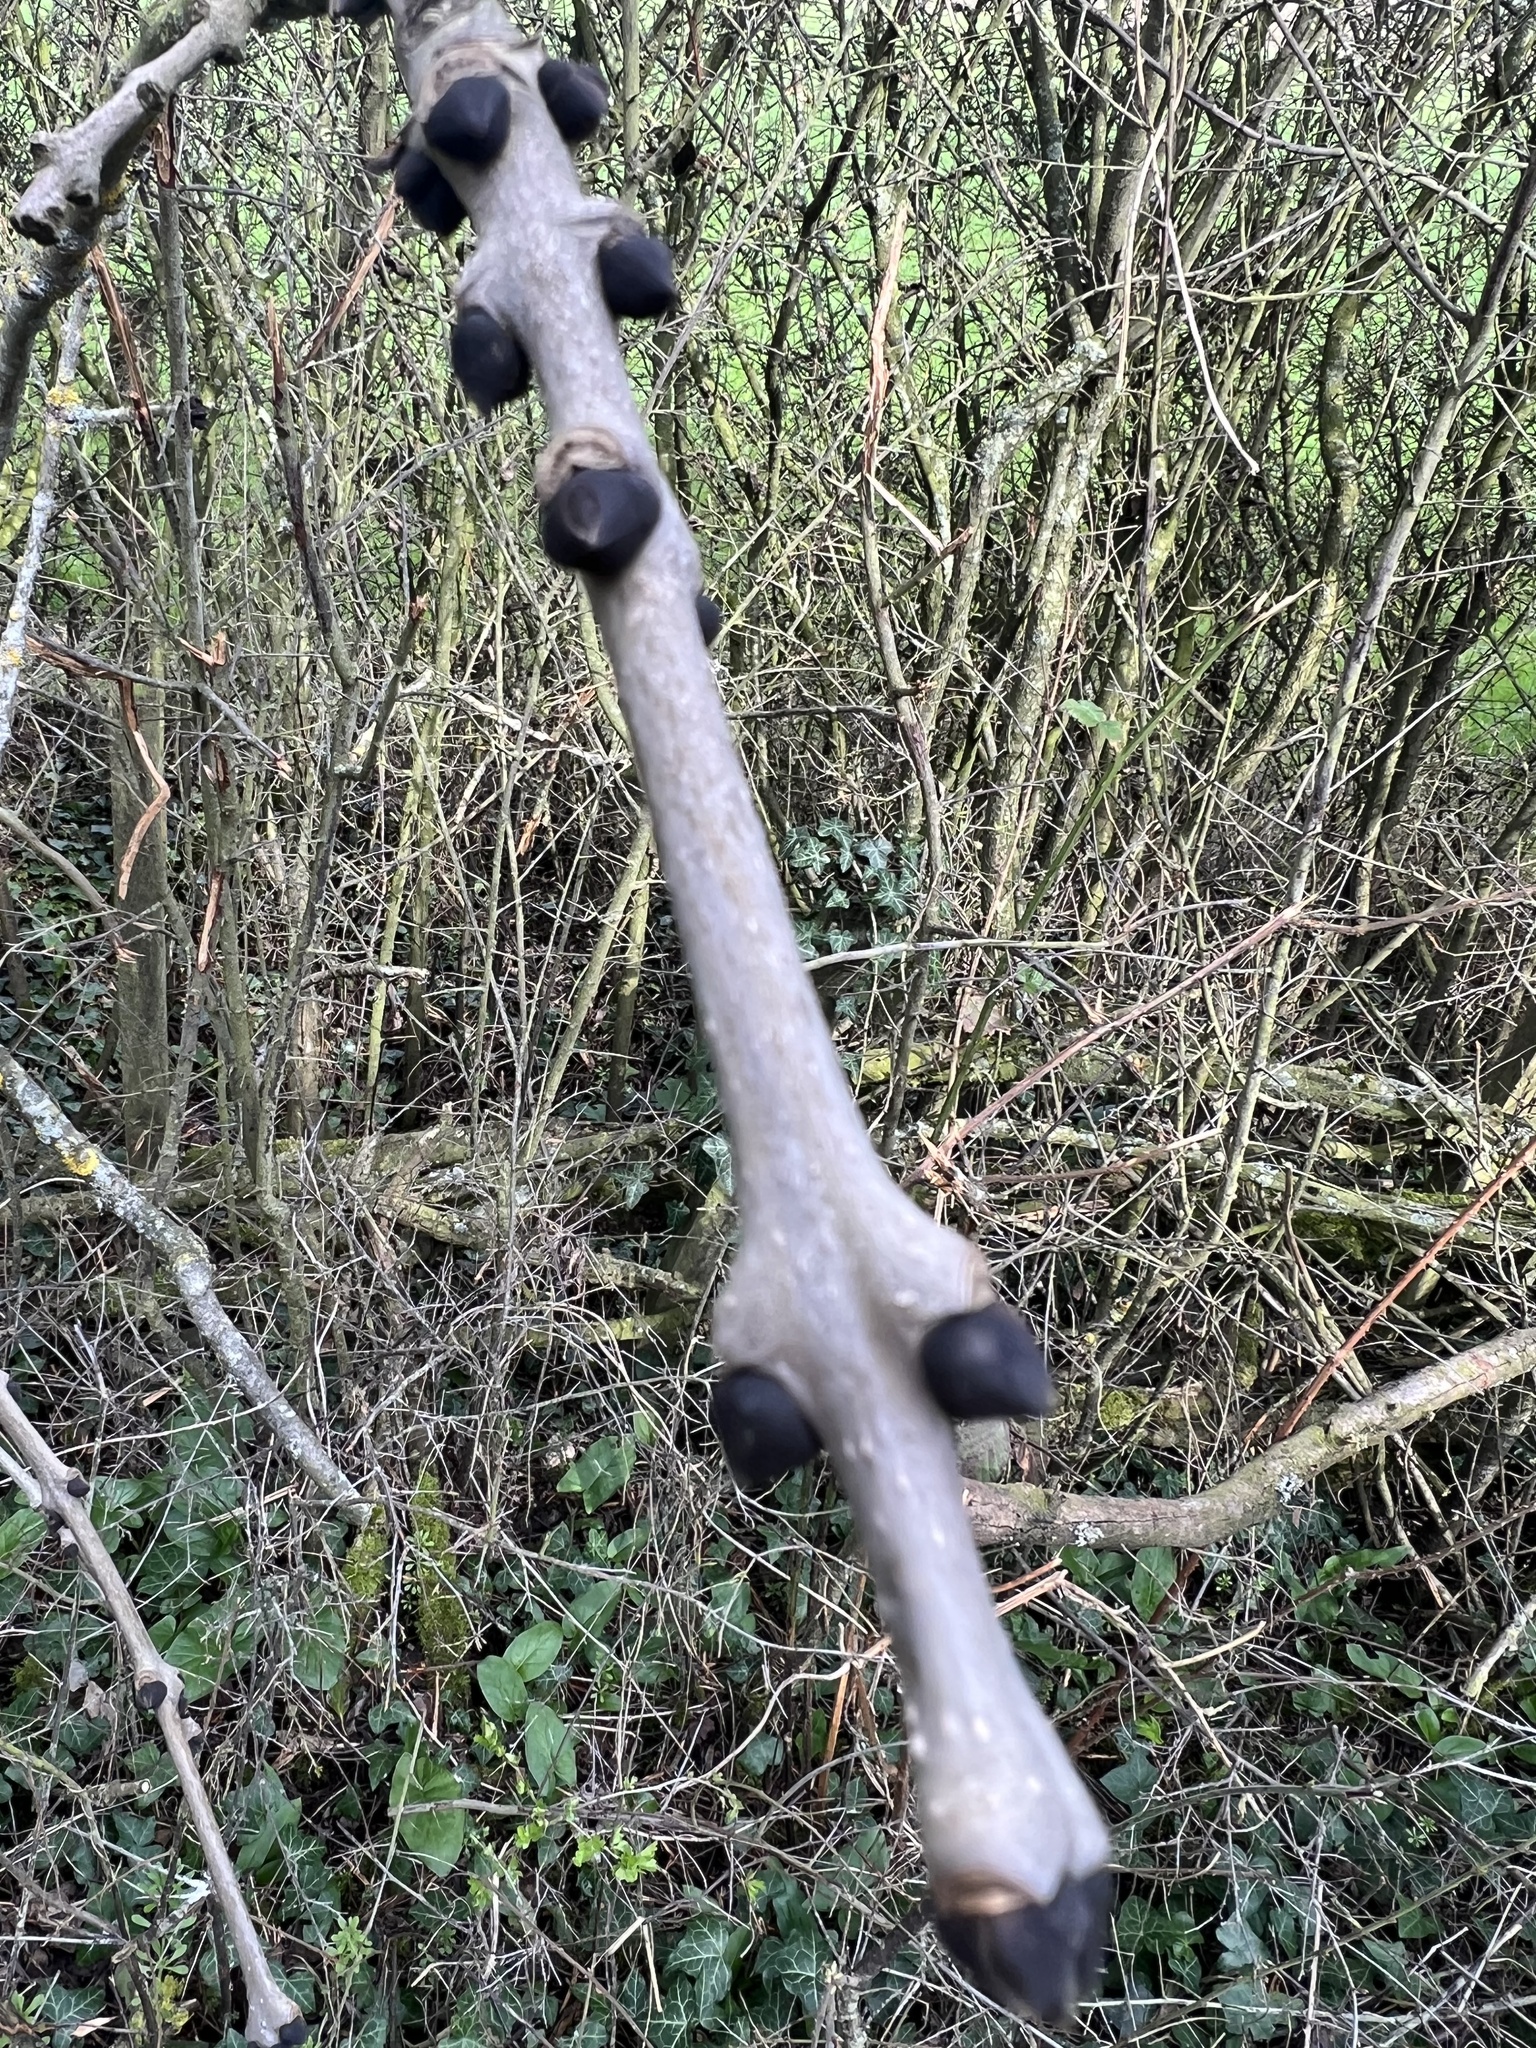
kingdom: Plantae
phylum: Tracheophyta
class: Magnoliopsida
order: Lamiales
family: Oleaceae
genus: Fraxinus
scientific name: Fraxinus excelsior
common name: European ash
